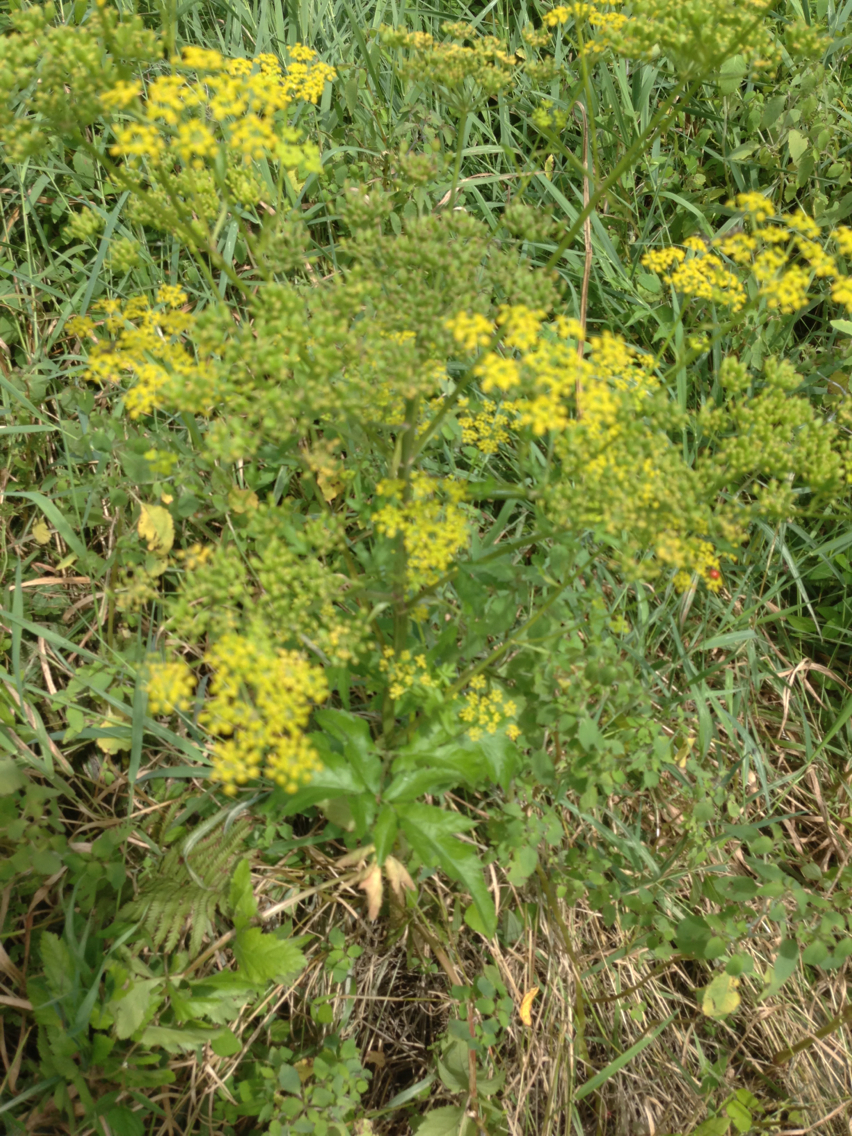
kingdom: Plantae
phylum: Tracheophyta
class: Magnoliopsida
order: Apiales
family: Apiaceae
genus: Pastinaca
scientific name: Pastinaca sativa
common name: Wild parsnip
